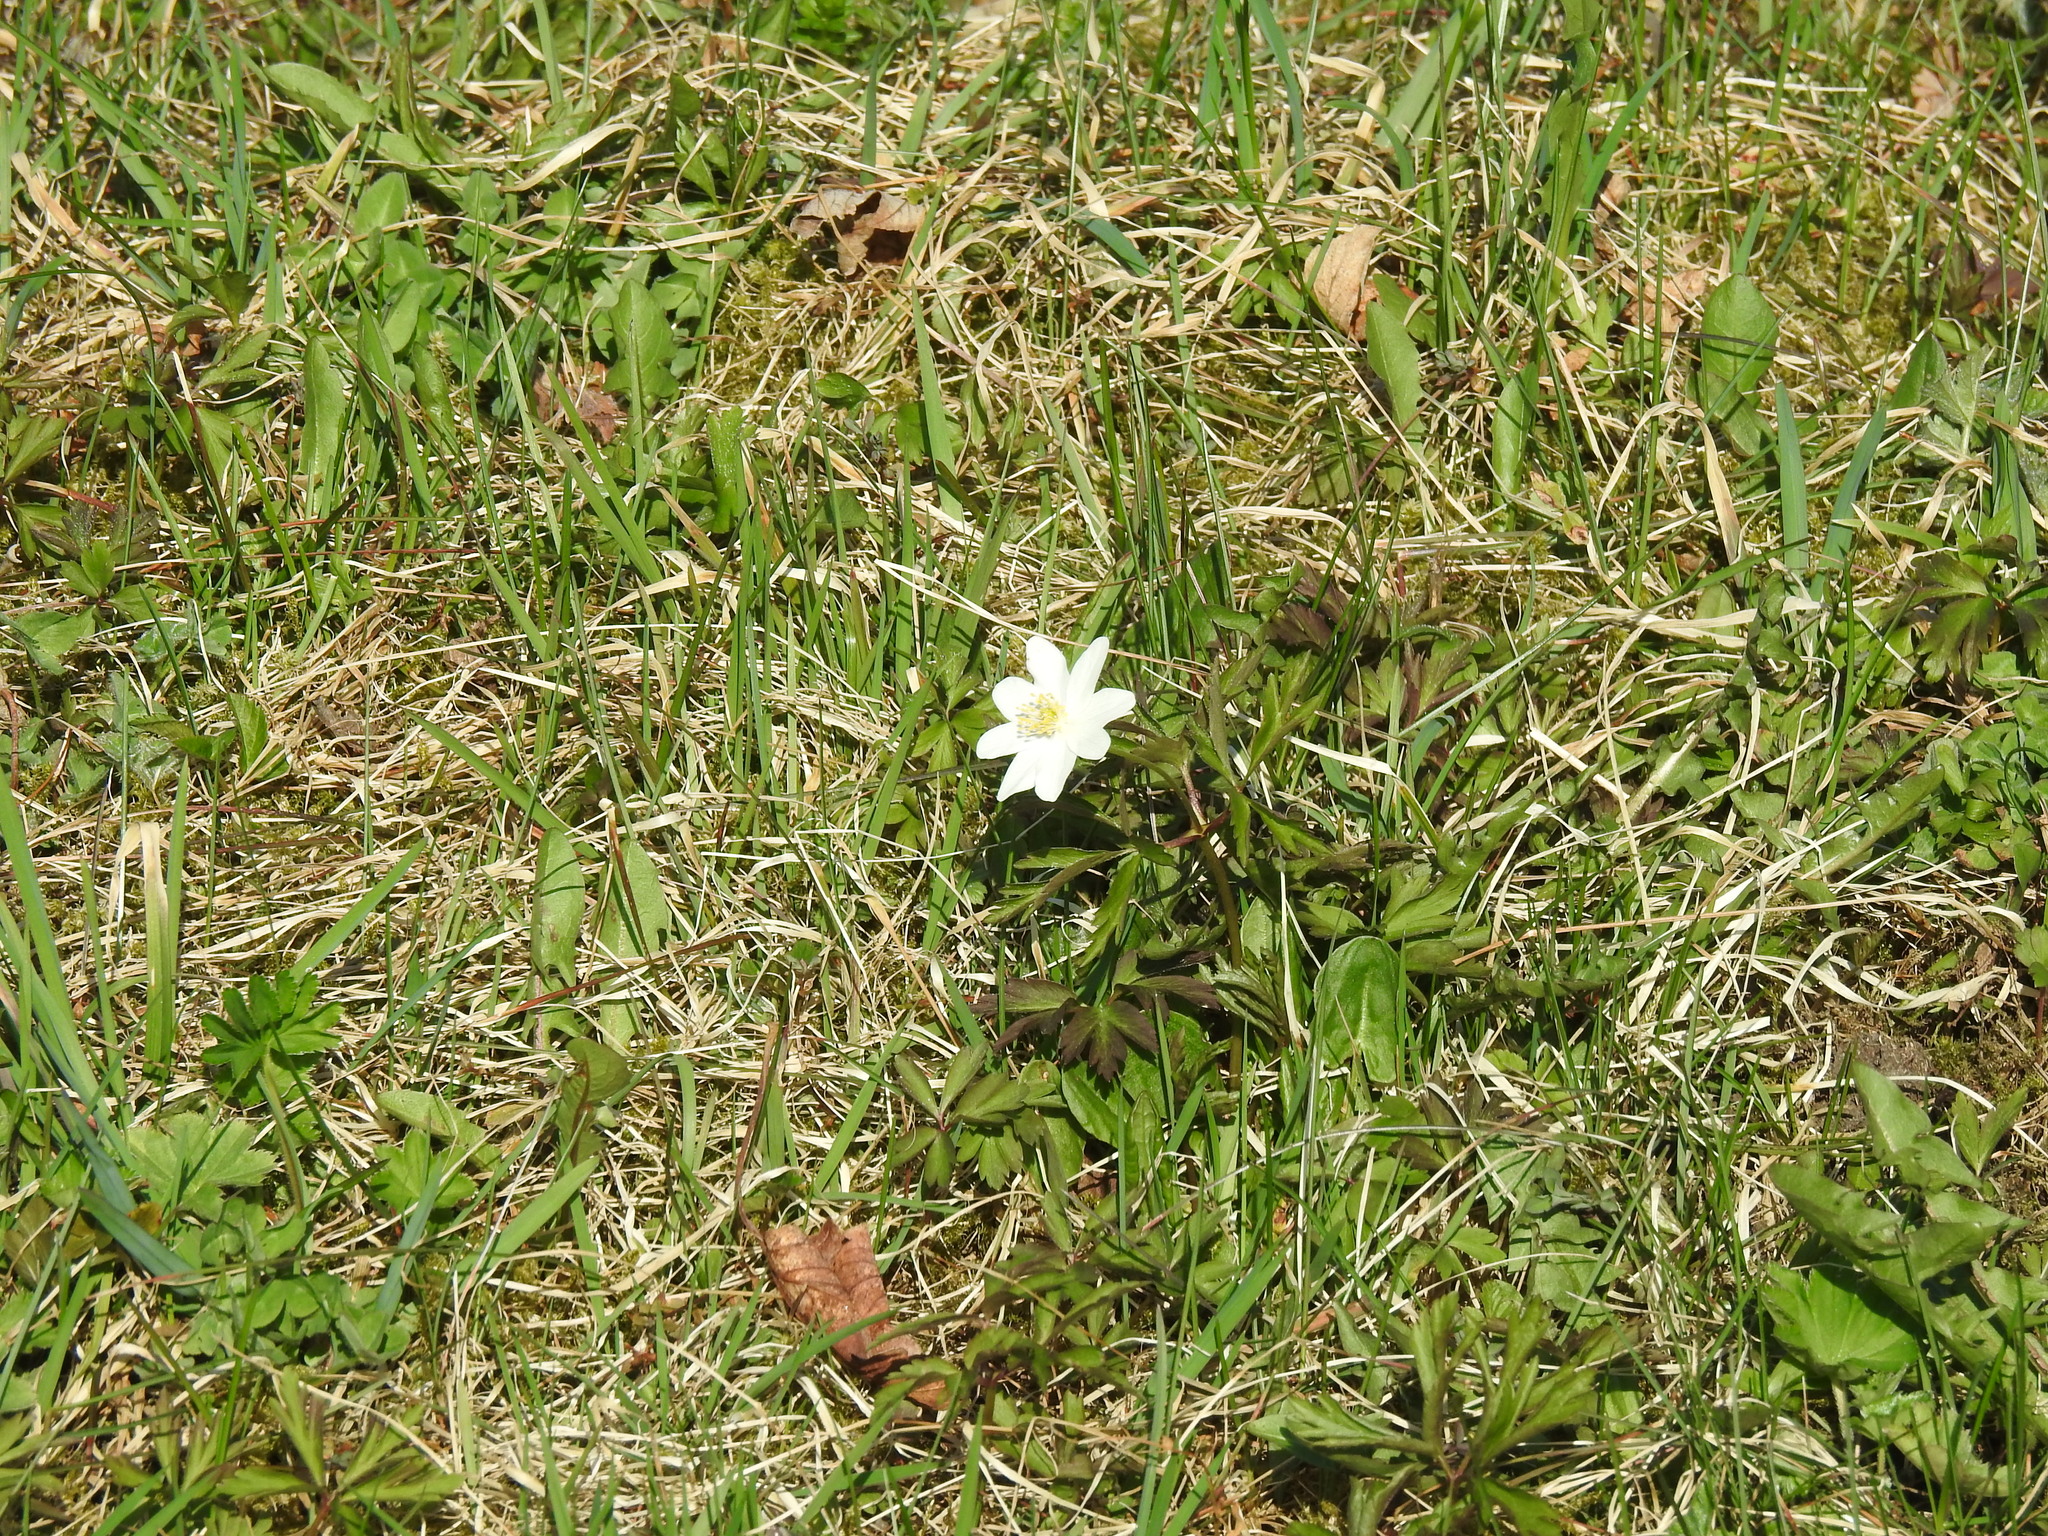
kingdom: Plantae
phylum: Tracheophyta
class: Magnoliopsida
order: Ranunculales
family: Ranunculaceae
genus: Anemone
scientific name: Anemone nemorosa
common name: Wood anemone
